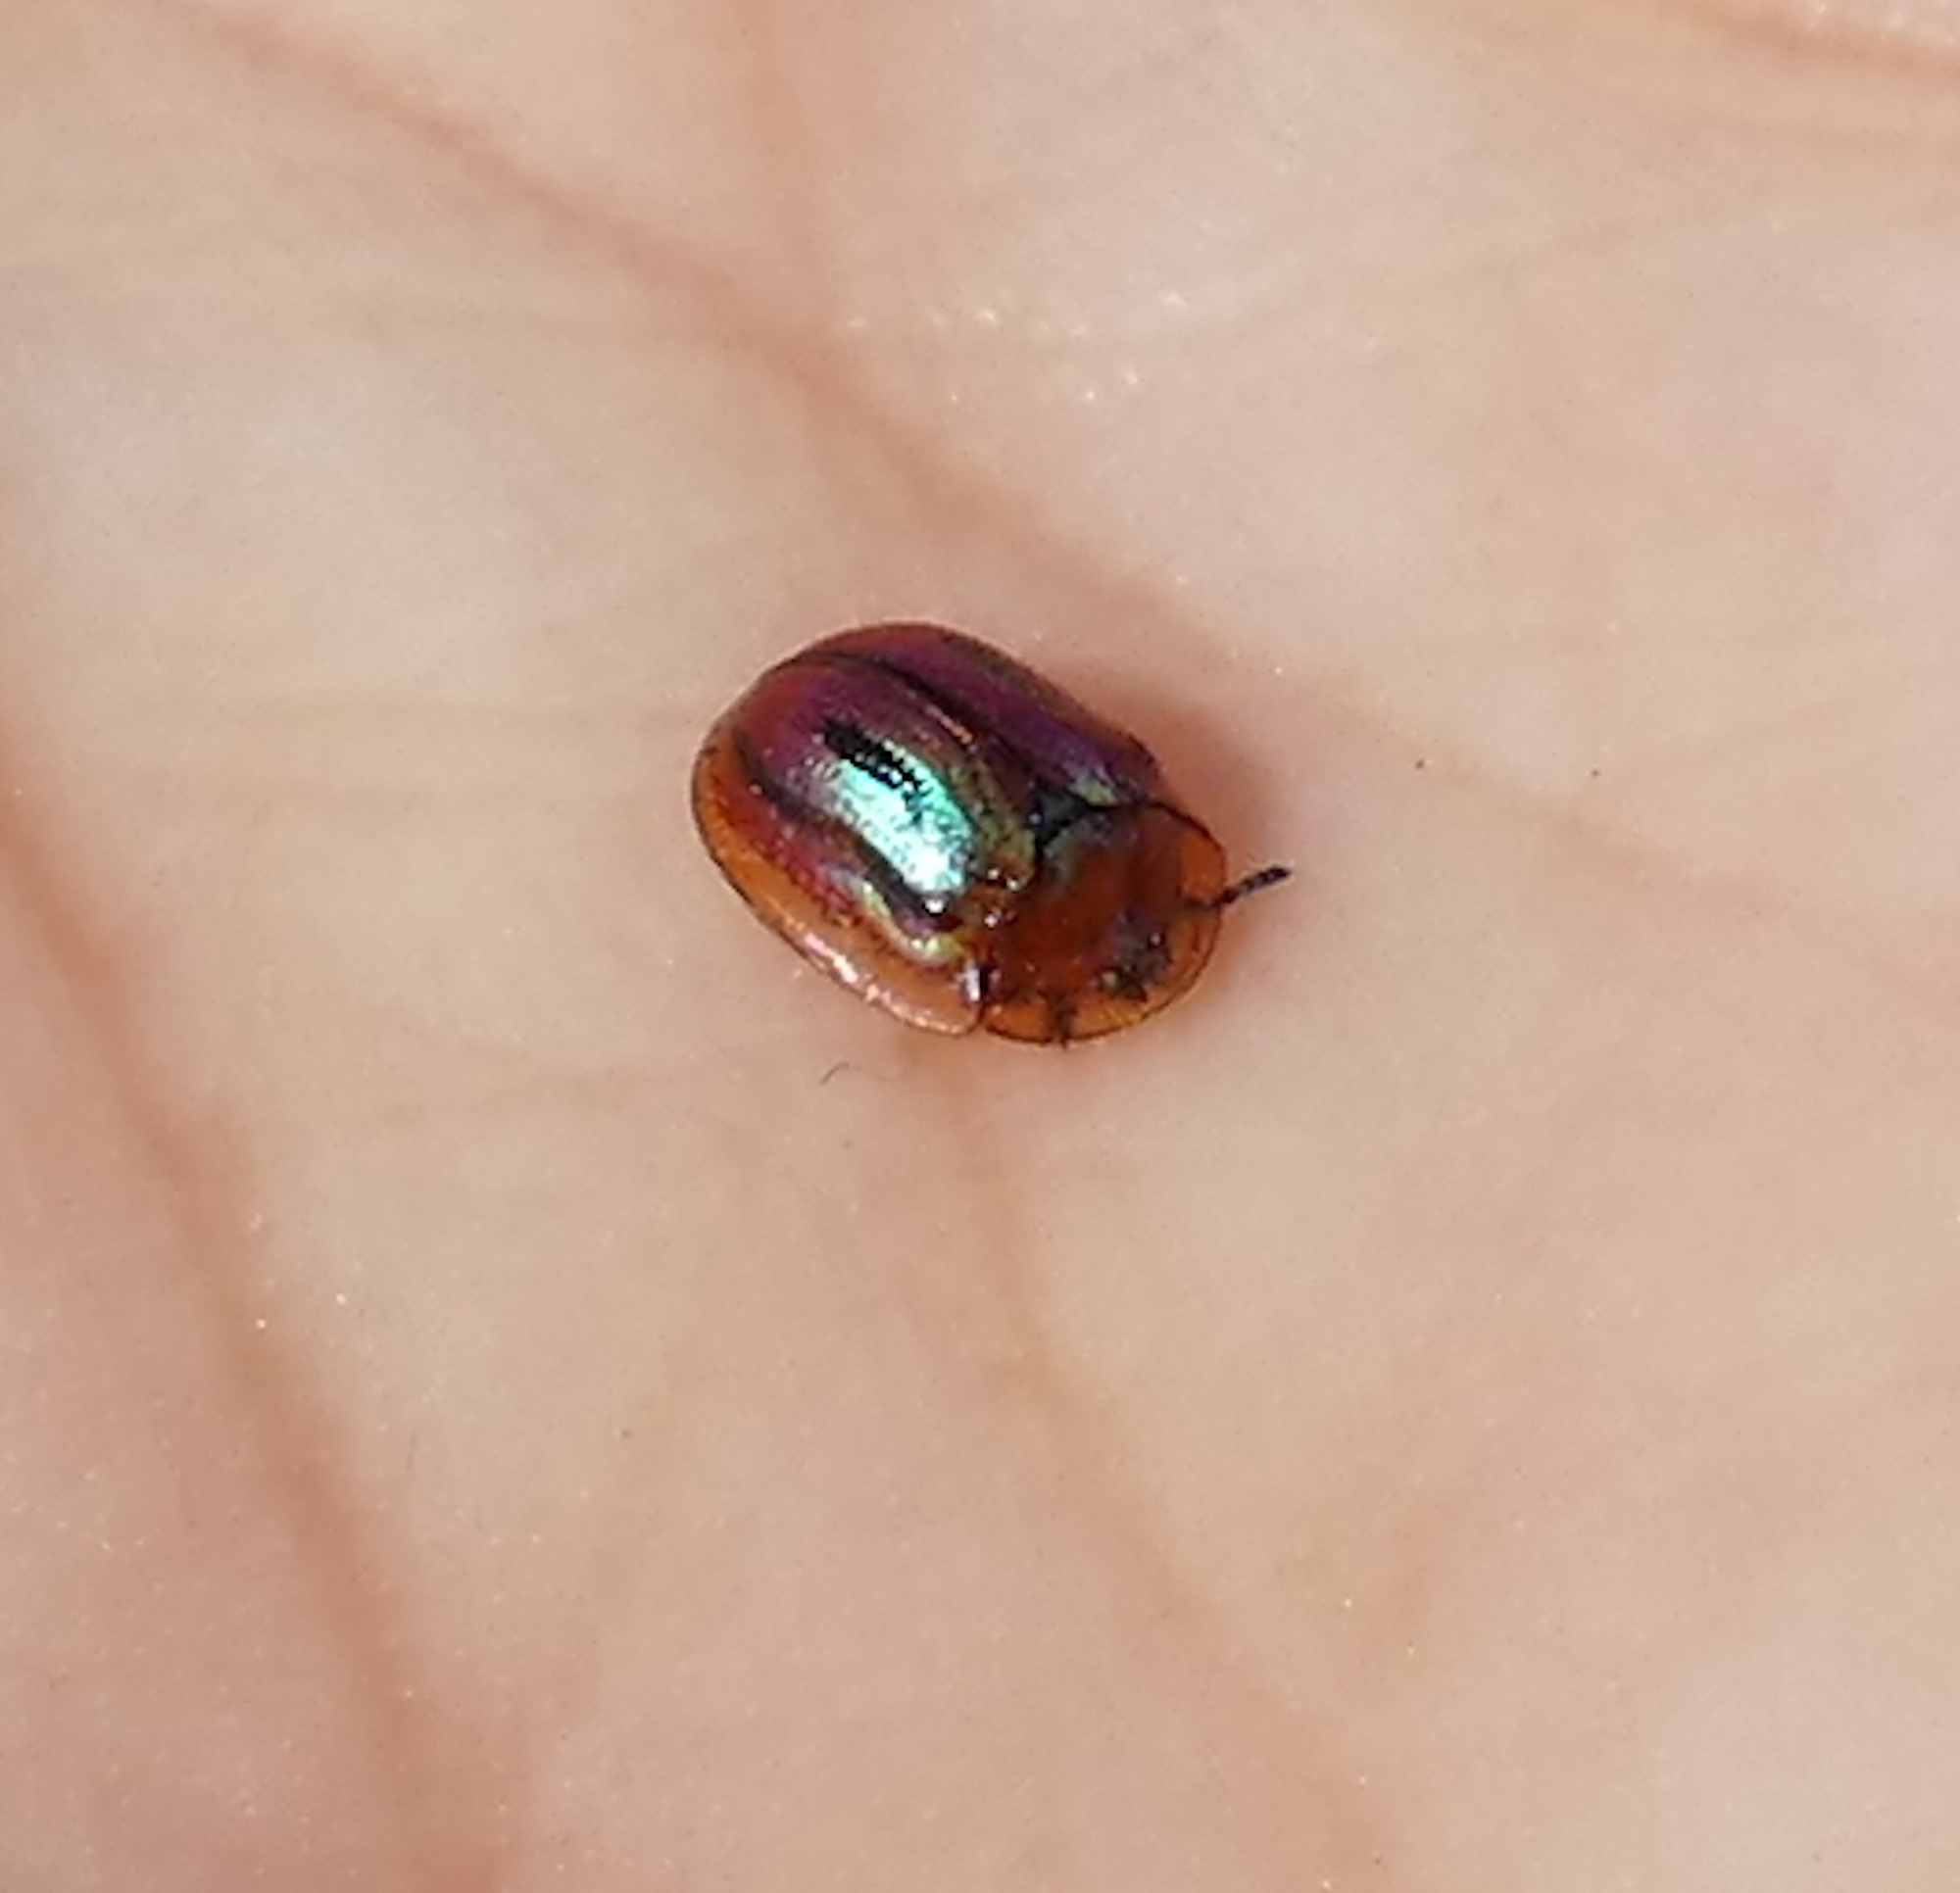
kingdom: Animalia
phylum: Arthropoda
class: Insecta
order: Coleoptera
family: Chrysomelidae
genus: Jonthonota
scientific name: Jonthonota mexicana
